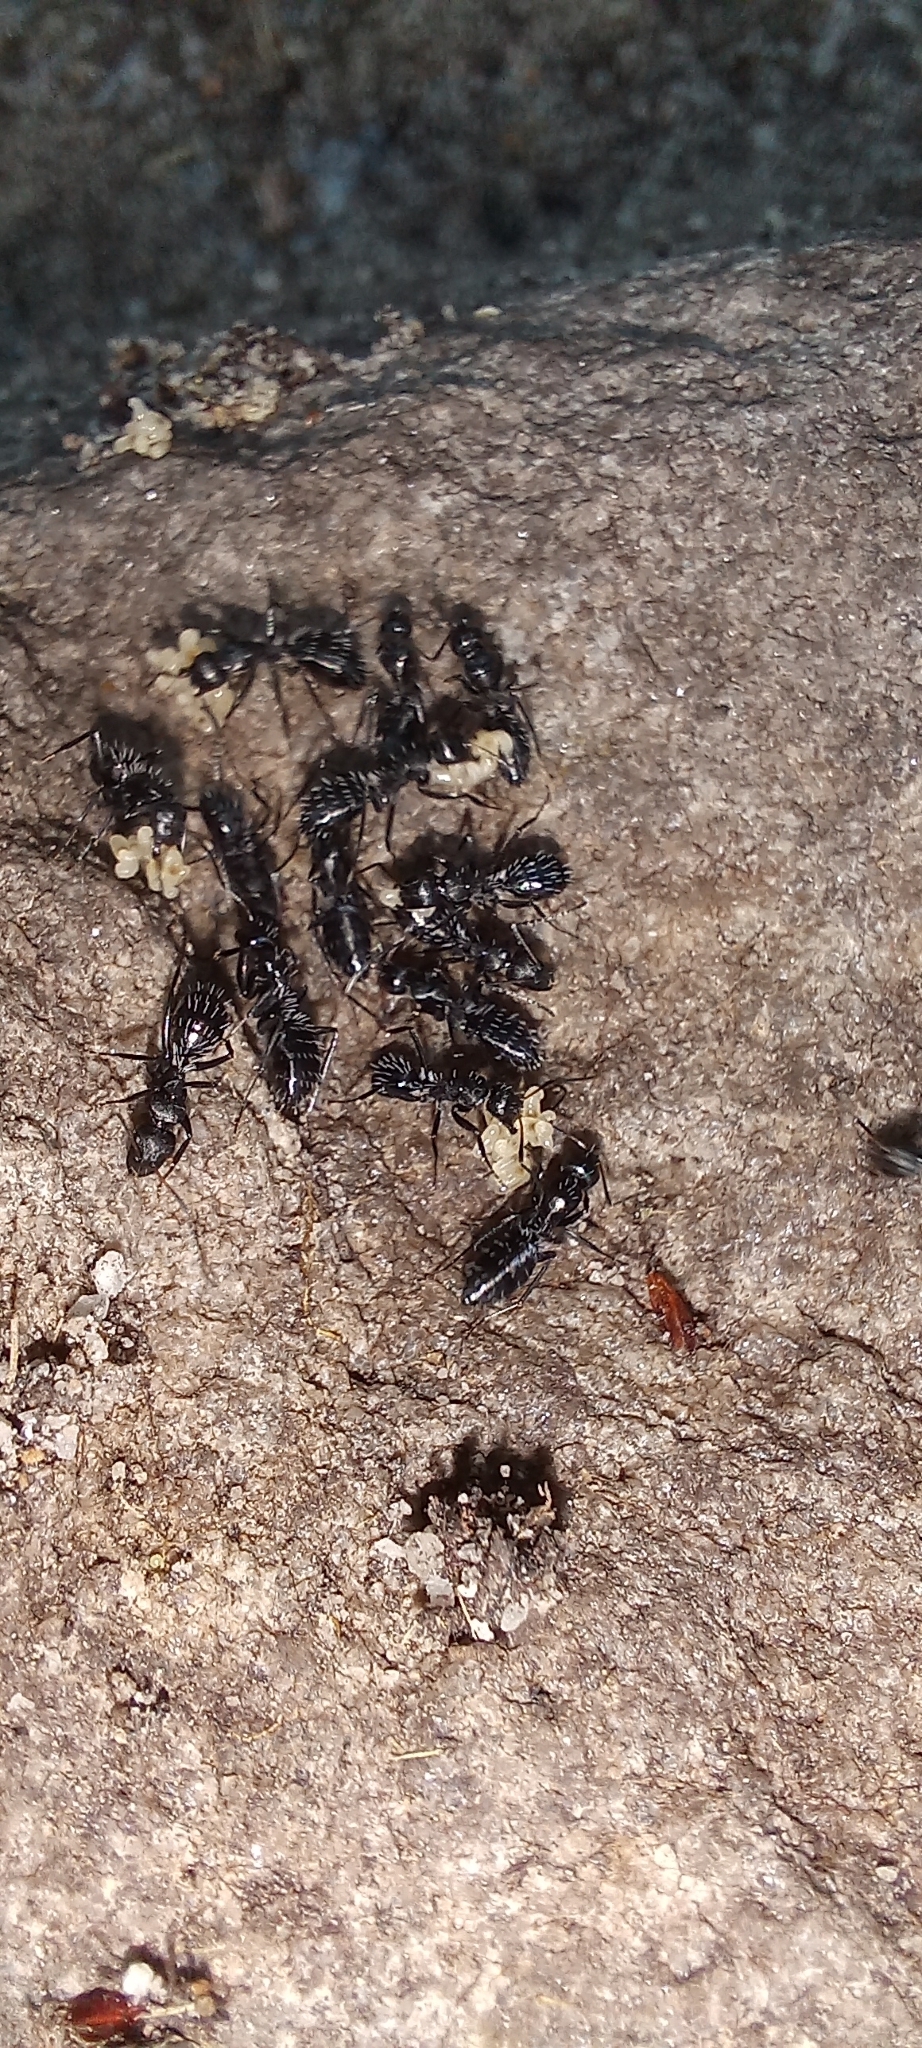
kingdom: Animalia
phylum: Arthropoda
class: Insecta
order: Hymenoptera
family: Formicidae
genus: Camponotus
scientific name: Camponotus niveosetosus
